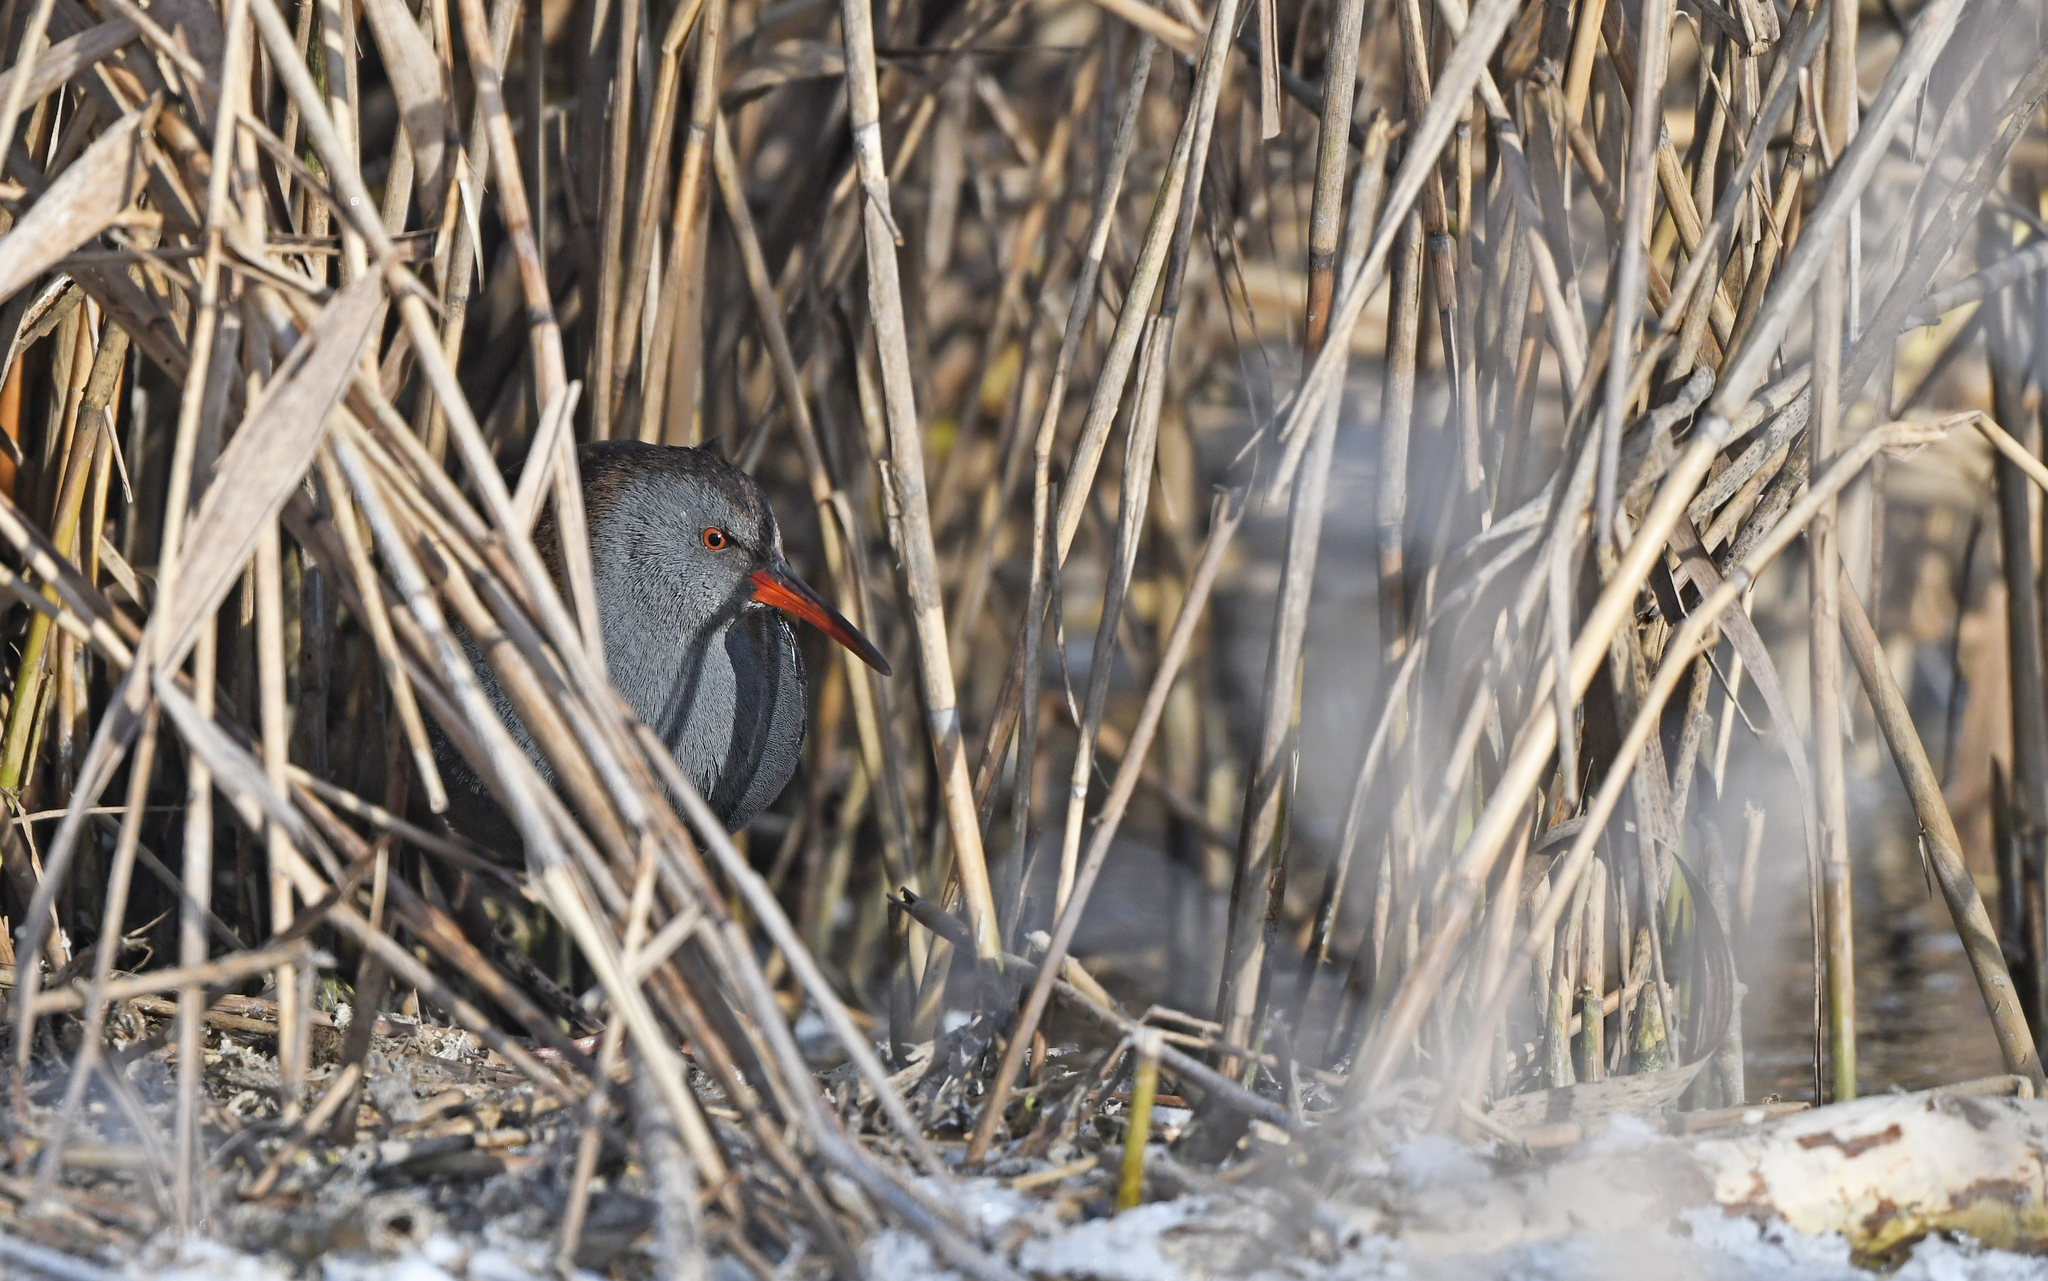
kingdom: Animalia
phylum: Chordata
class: Aves
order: Gruiformes
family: Rallidae
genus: Rallus
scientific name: Rallus aquaticus
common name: Water rail
